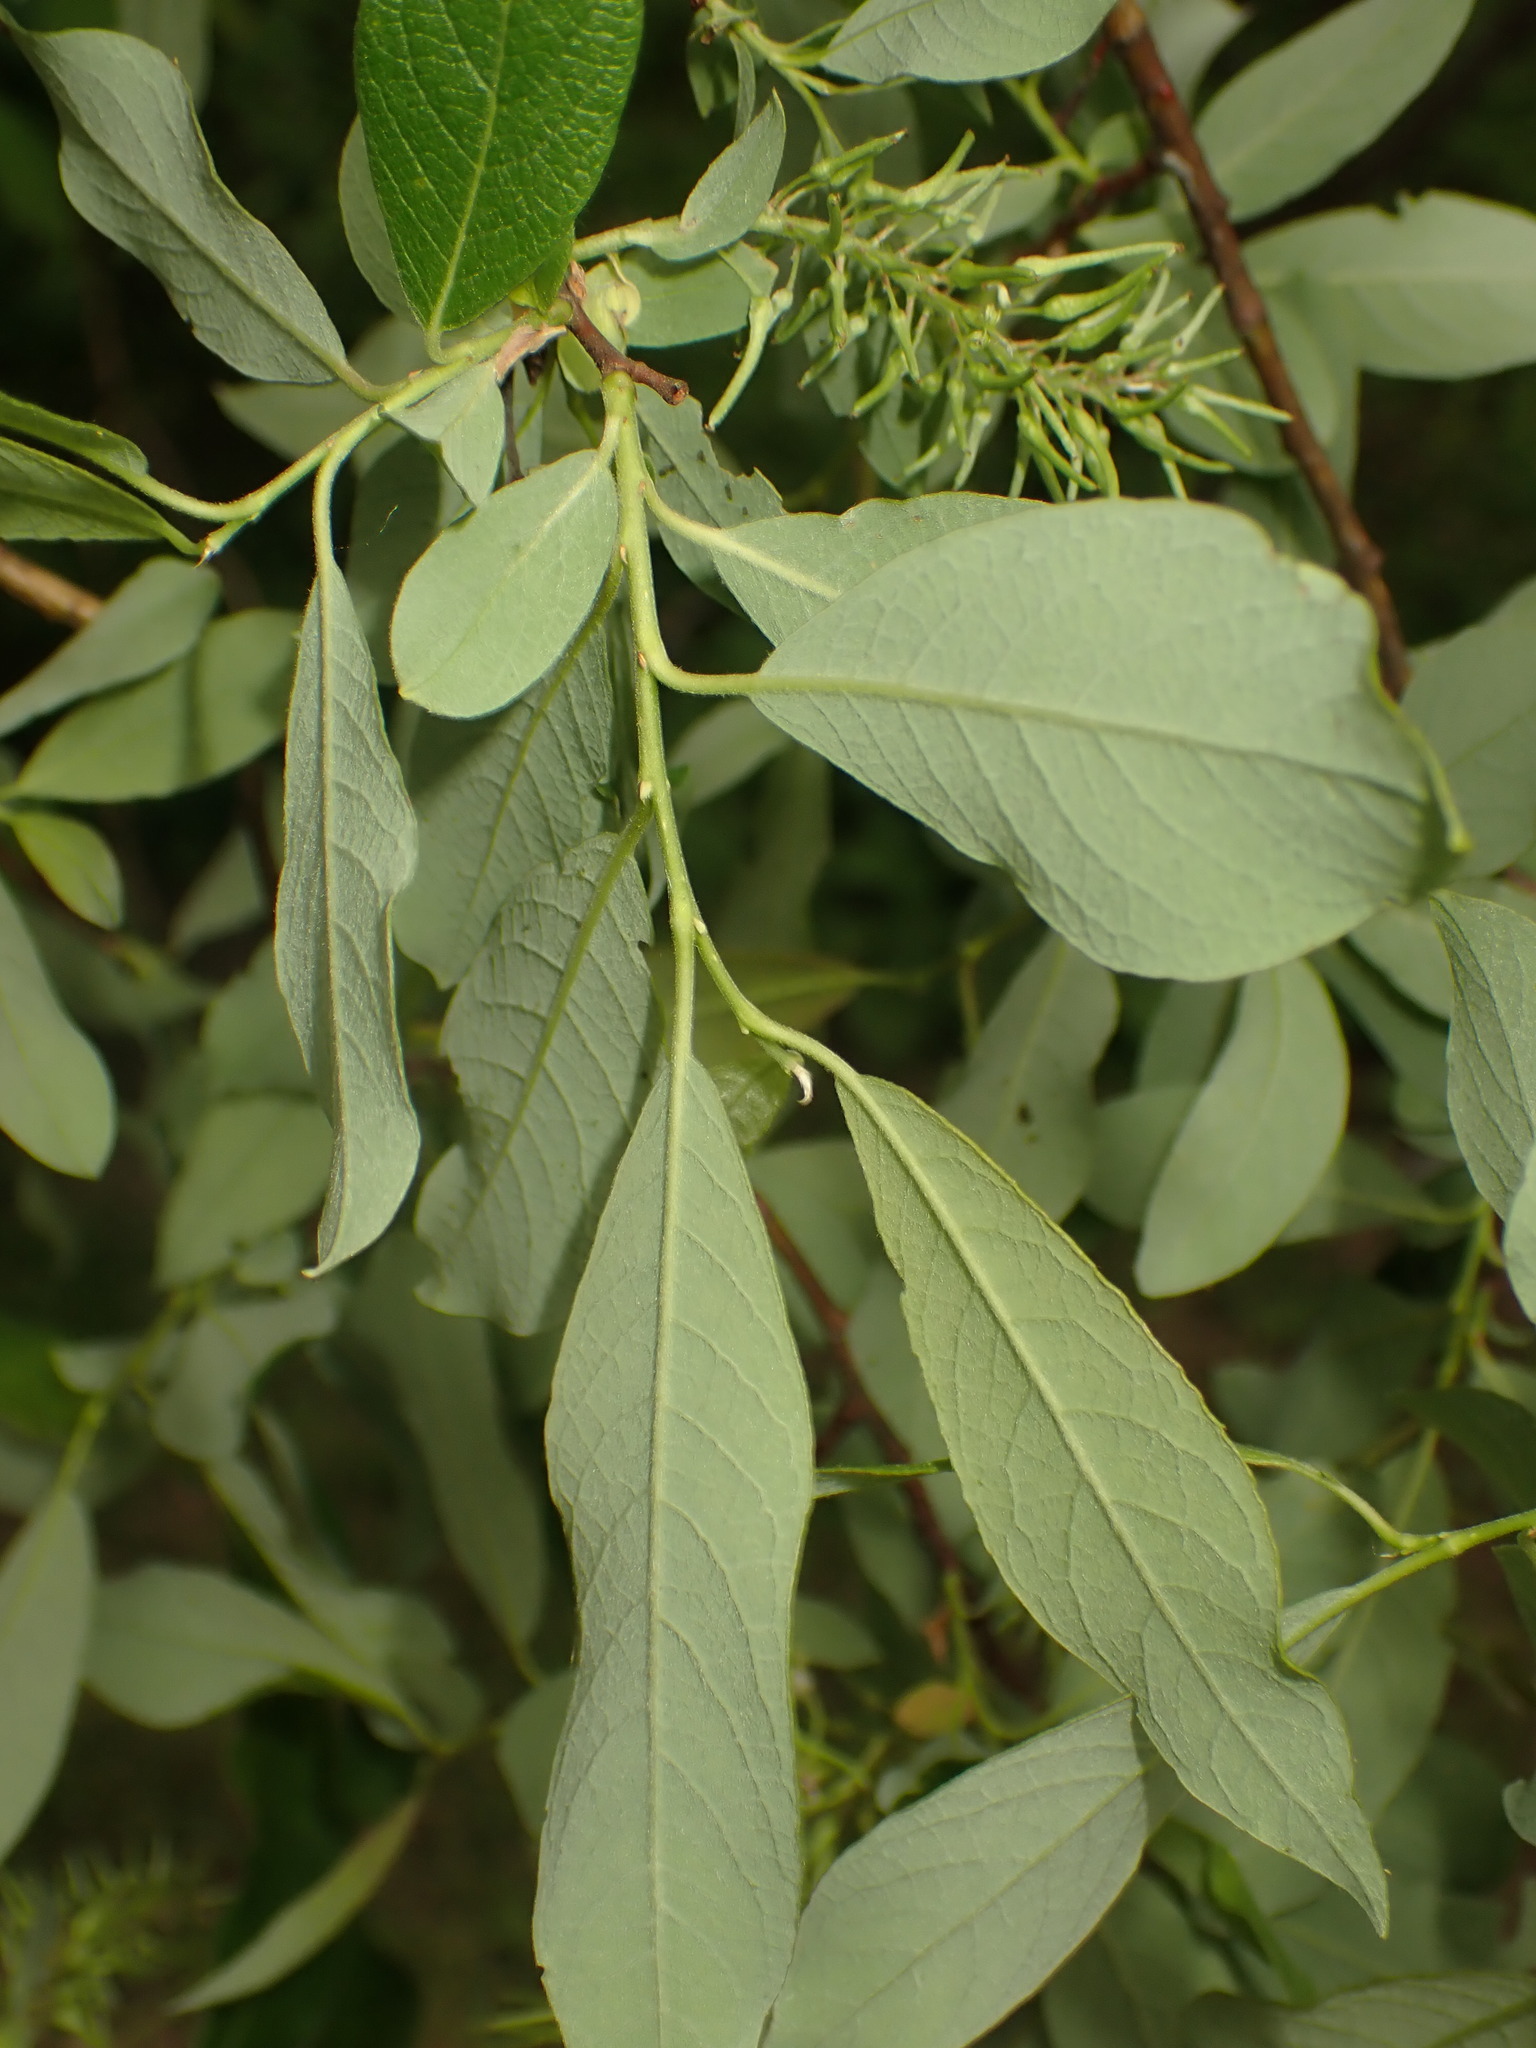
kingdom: Plantae
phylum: Tracheophyta
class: Magnoliopsida
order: Malpighiales
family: Salicaceae
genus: Salix
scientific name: Salix bebbiana
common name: Bebb's willow
